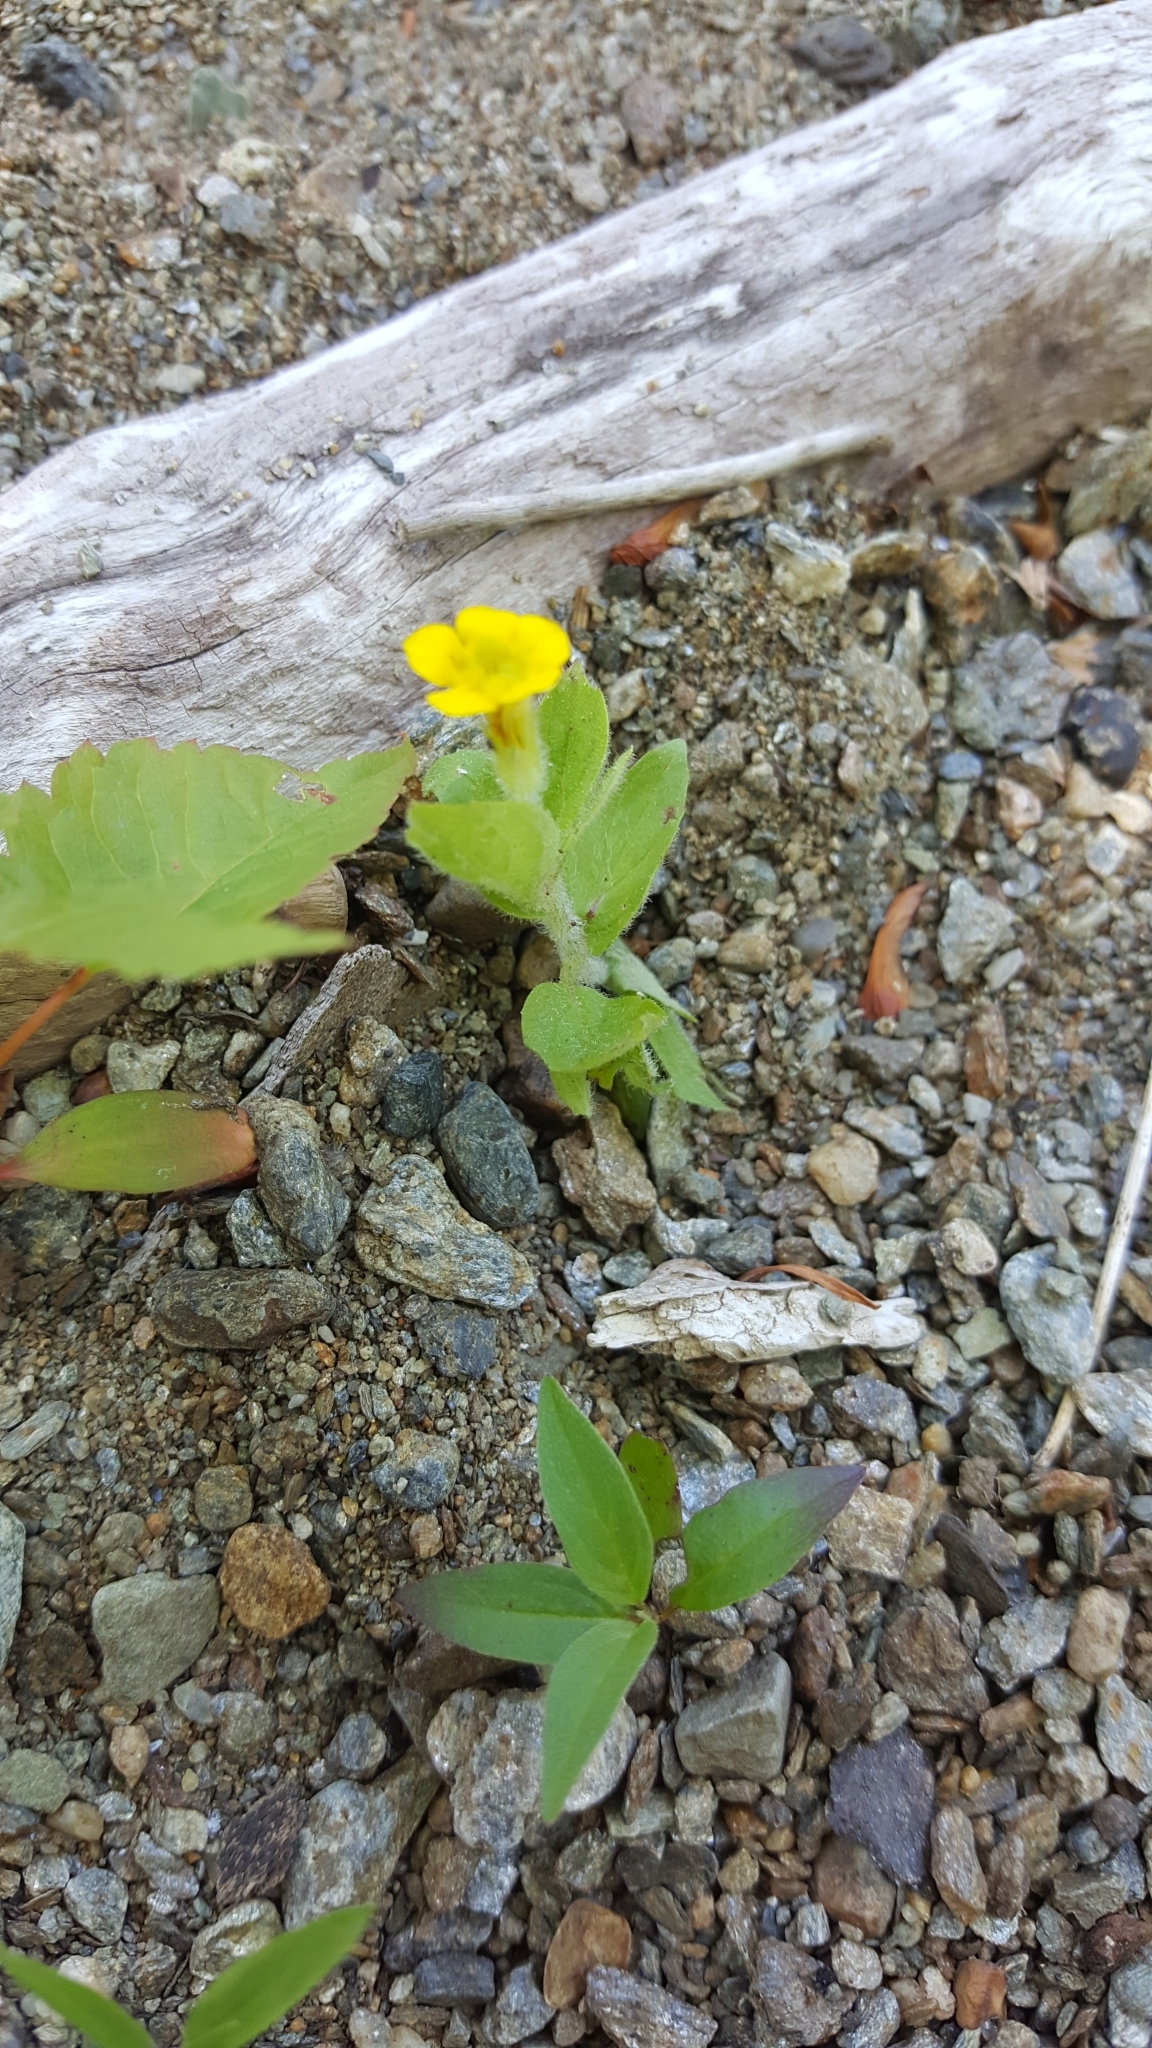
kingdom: Plantae
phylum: Tracheophyta
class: Magnoliopsida
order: Lamiales
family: Phrymaceae
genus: Erythranthe
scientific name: Erythranthe moschata
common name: Muskflower
